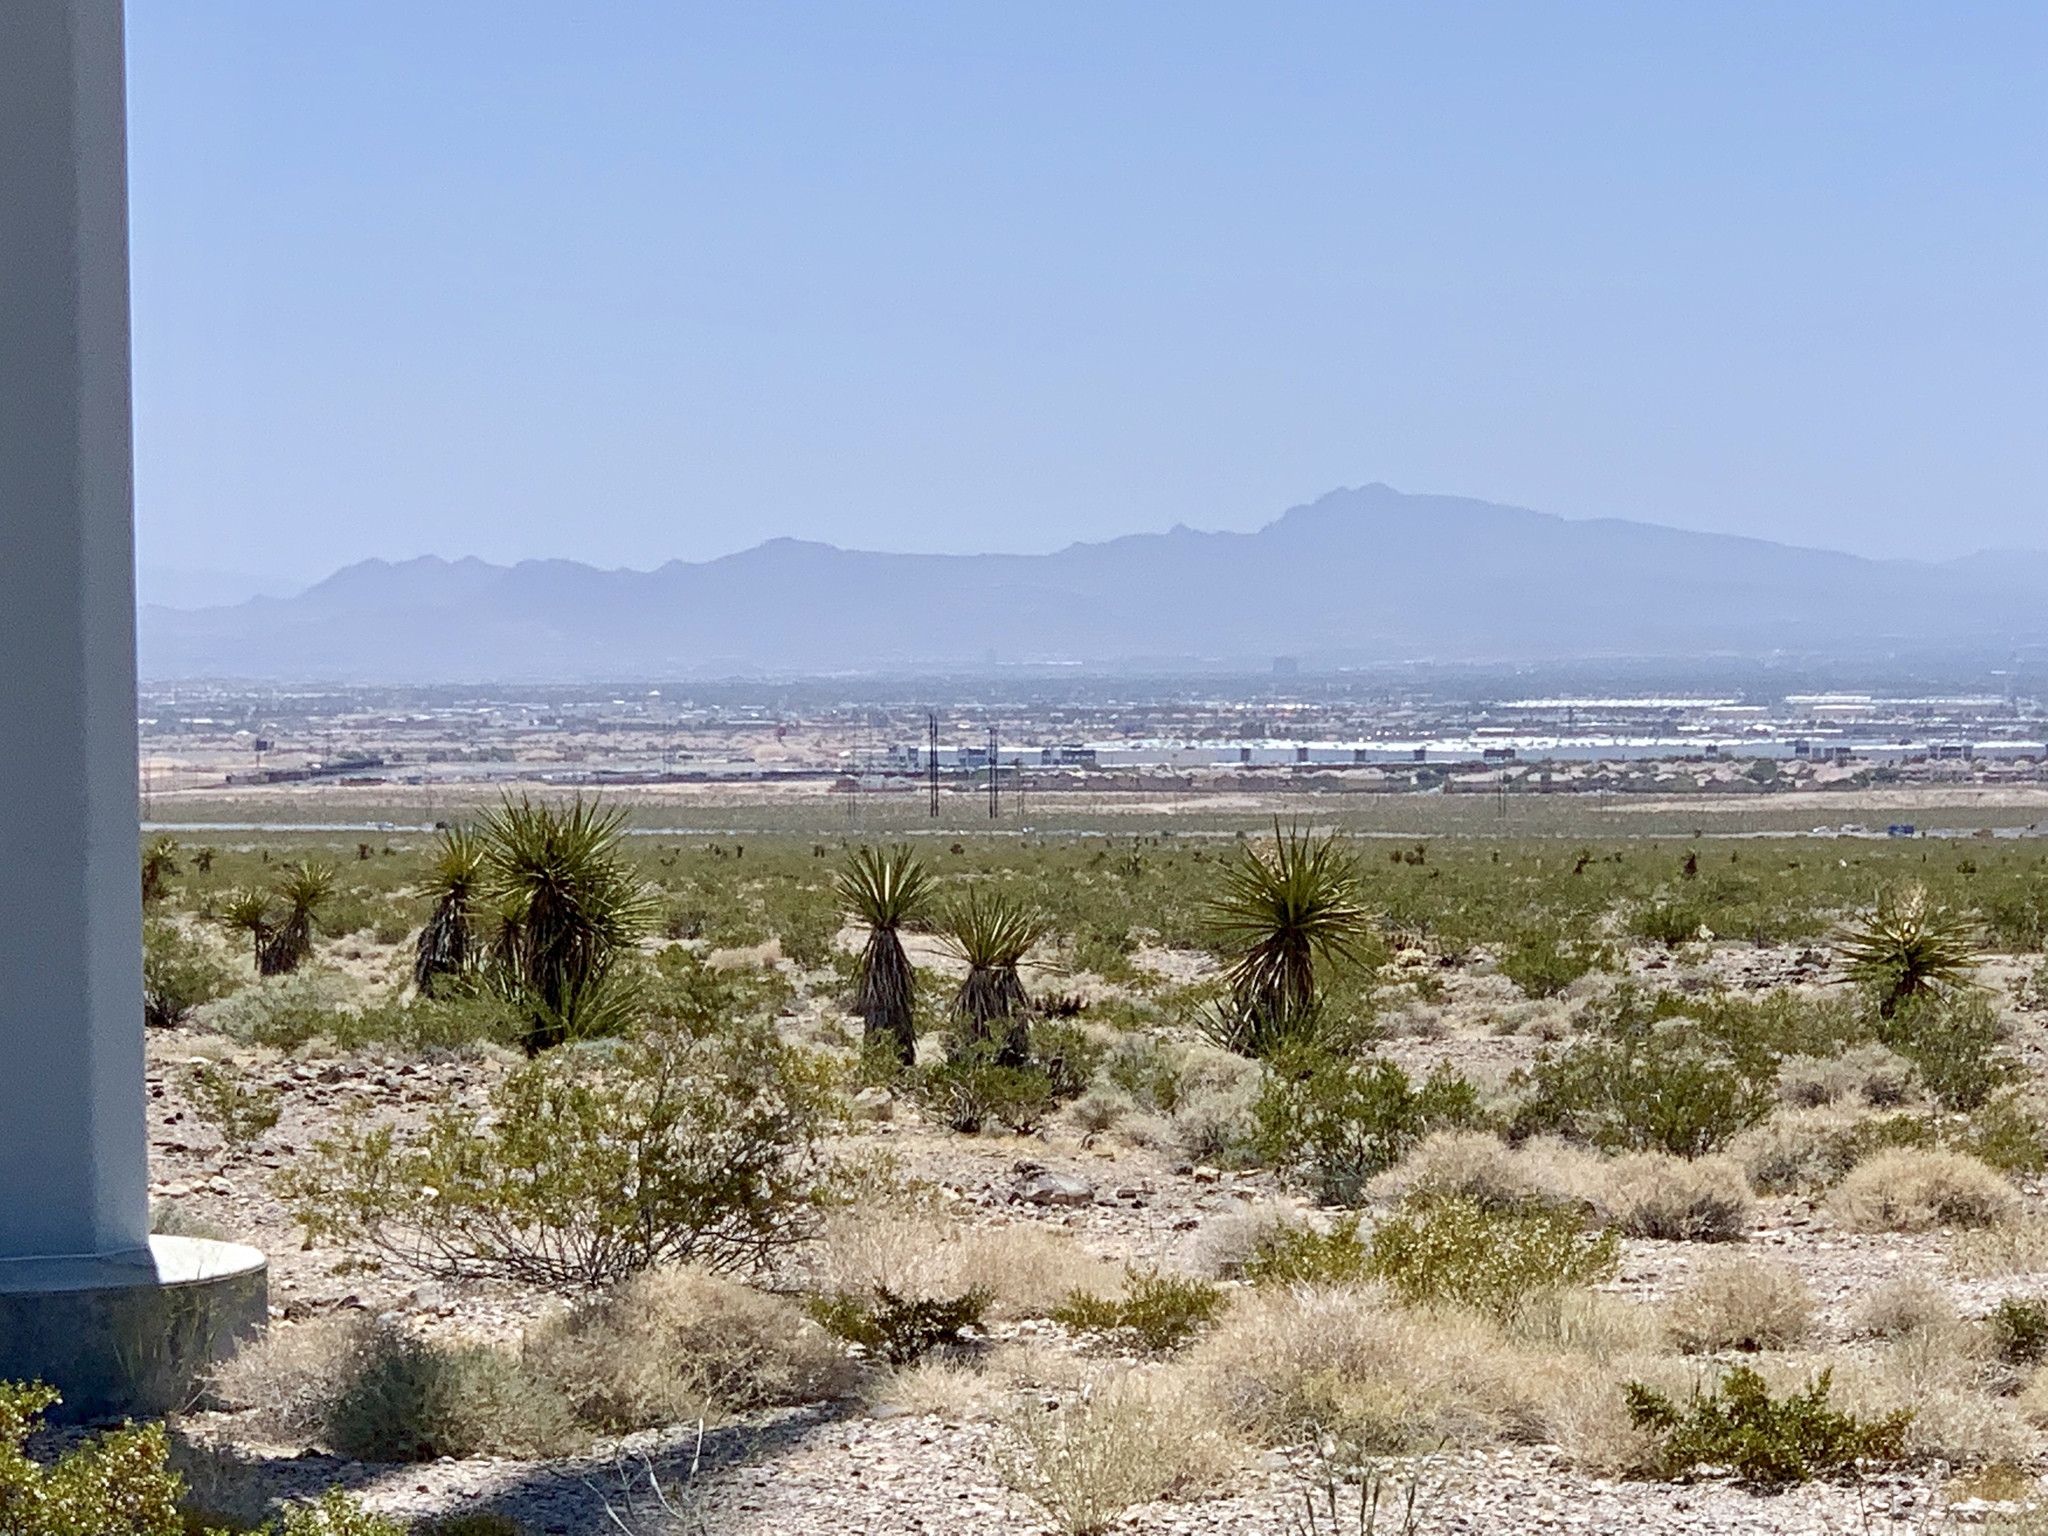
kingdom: Plantae
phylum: Tracheophyta
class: Liliopsida
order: Asparagales
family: Asparagaceae
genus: Yucca
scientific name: Yucca schidigera
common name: Mojave yucca
